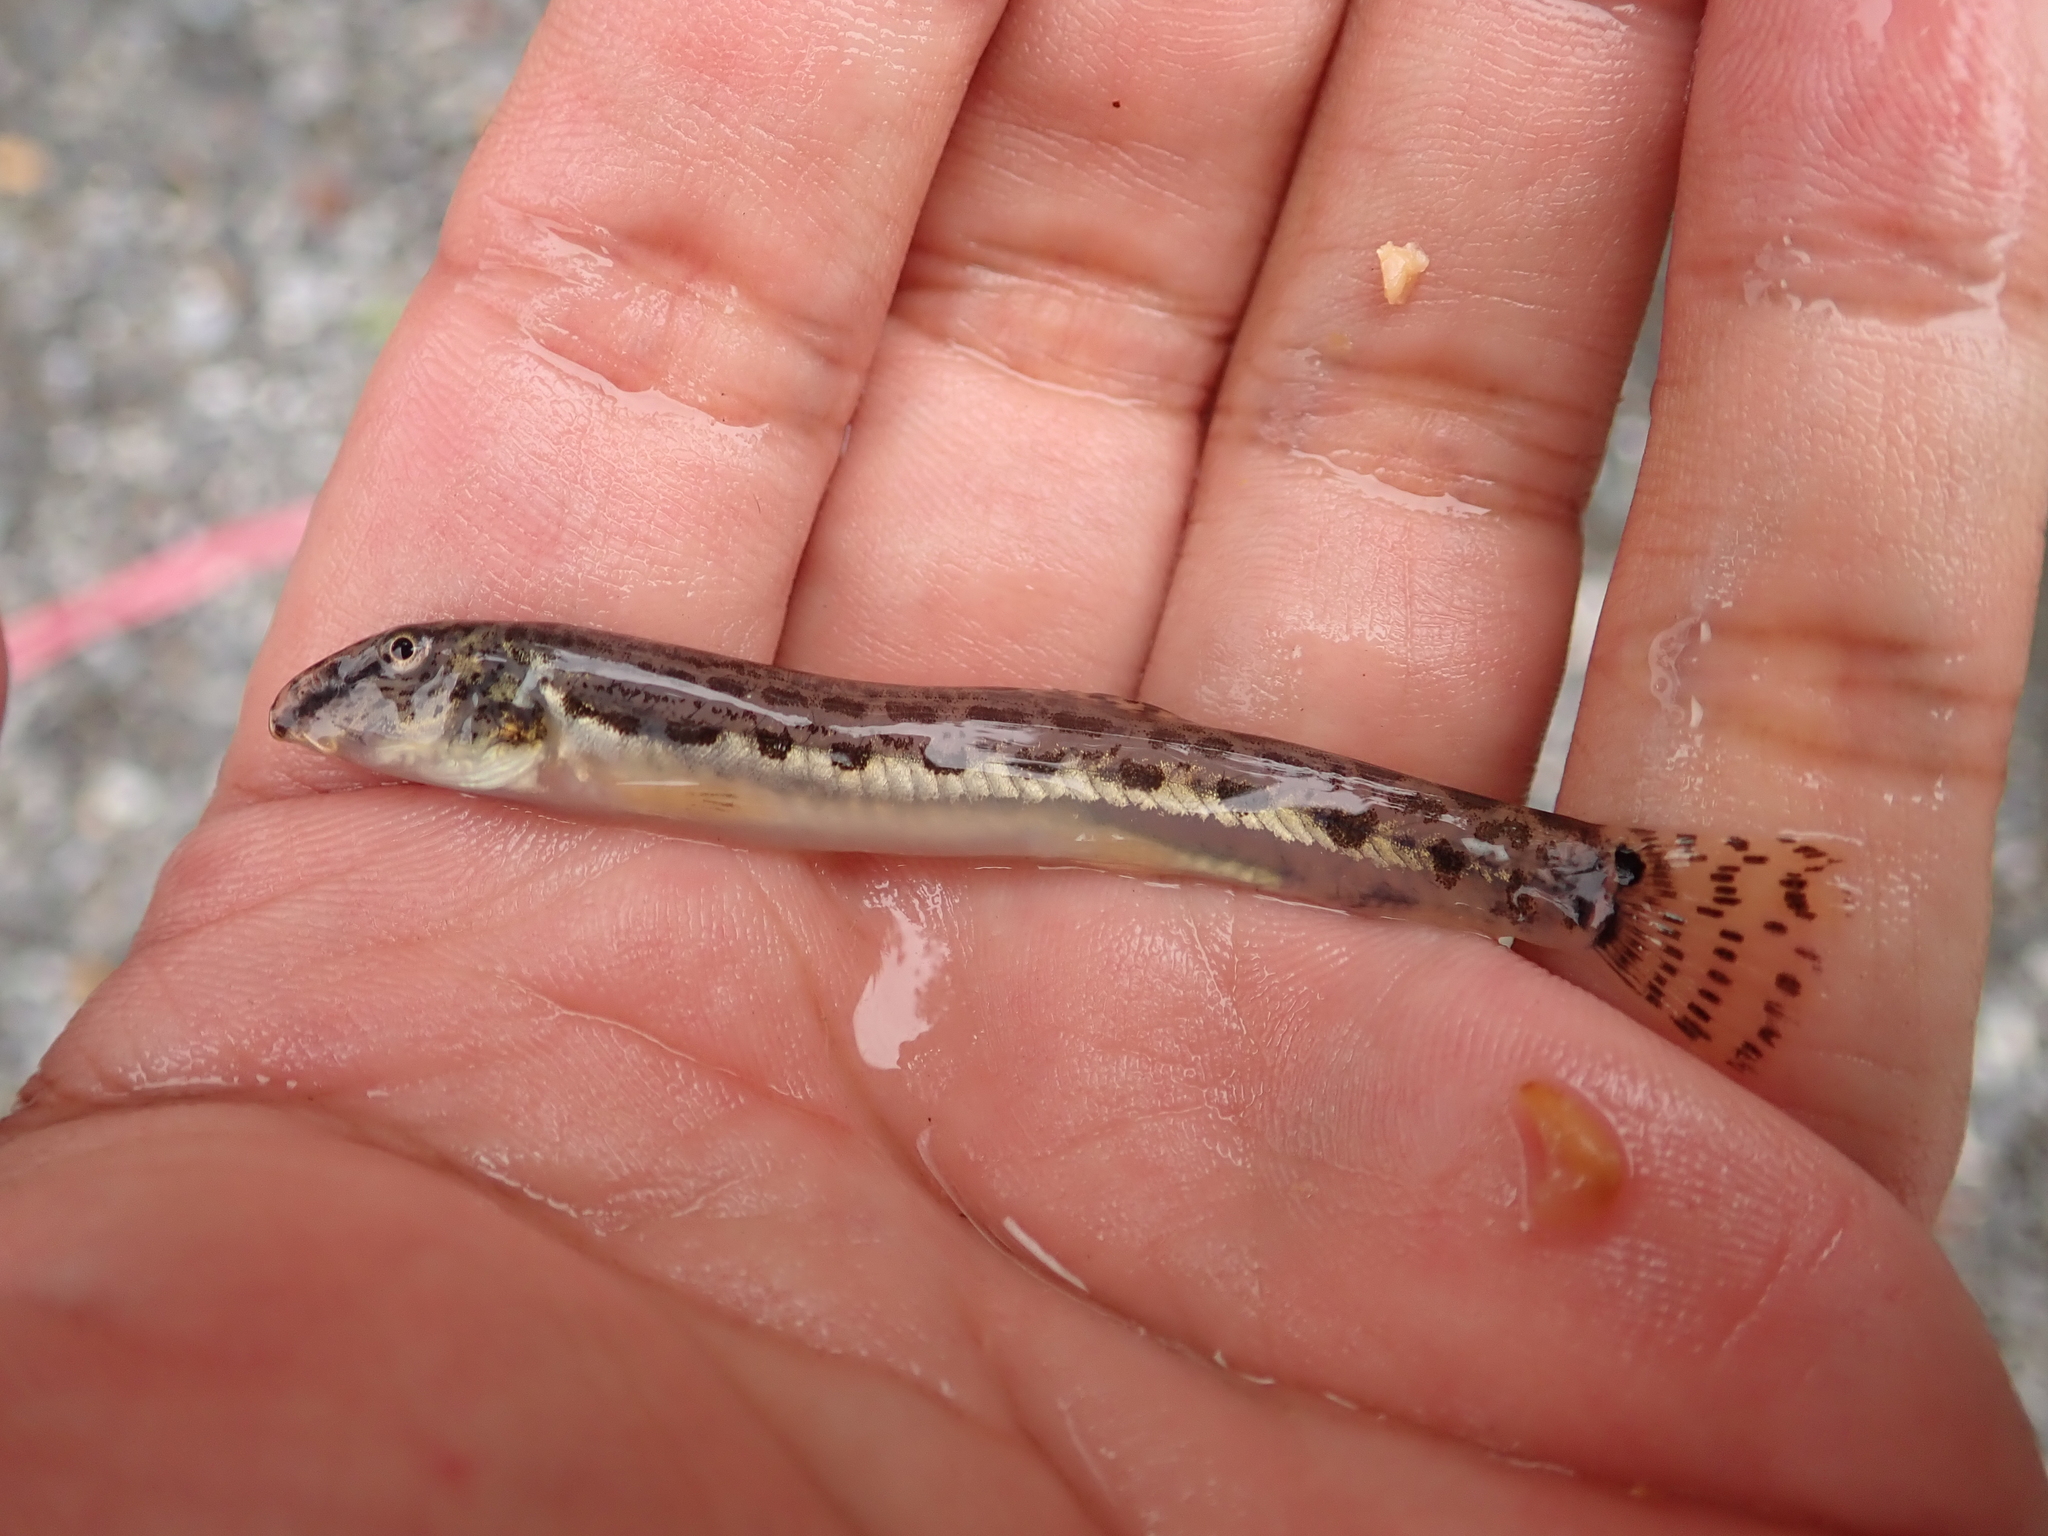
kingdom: Animalia
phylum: Chordata
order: Cypriniformes
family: Cobitidae
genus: Cobitis
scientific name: Cobitis sinensis
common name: Siberian spiny loach
